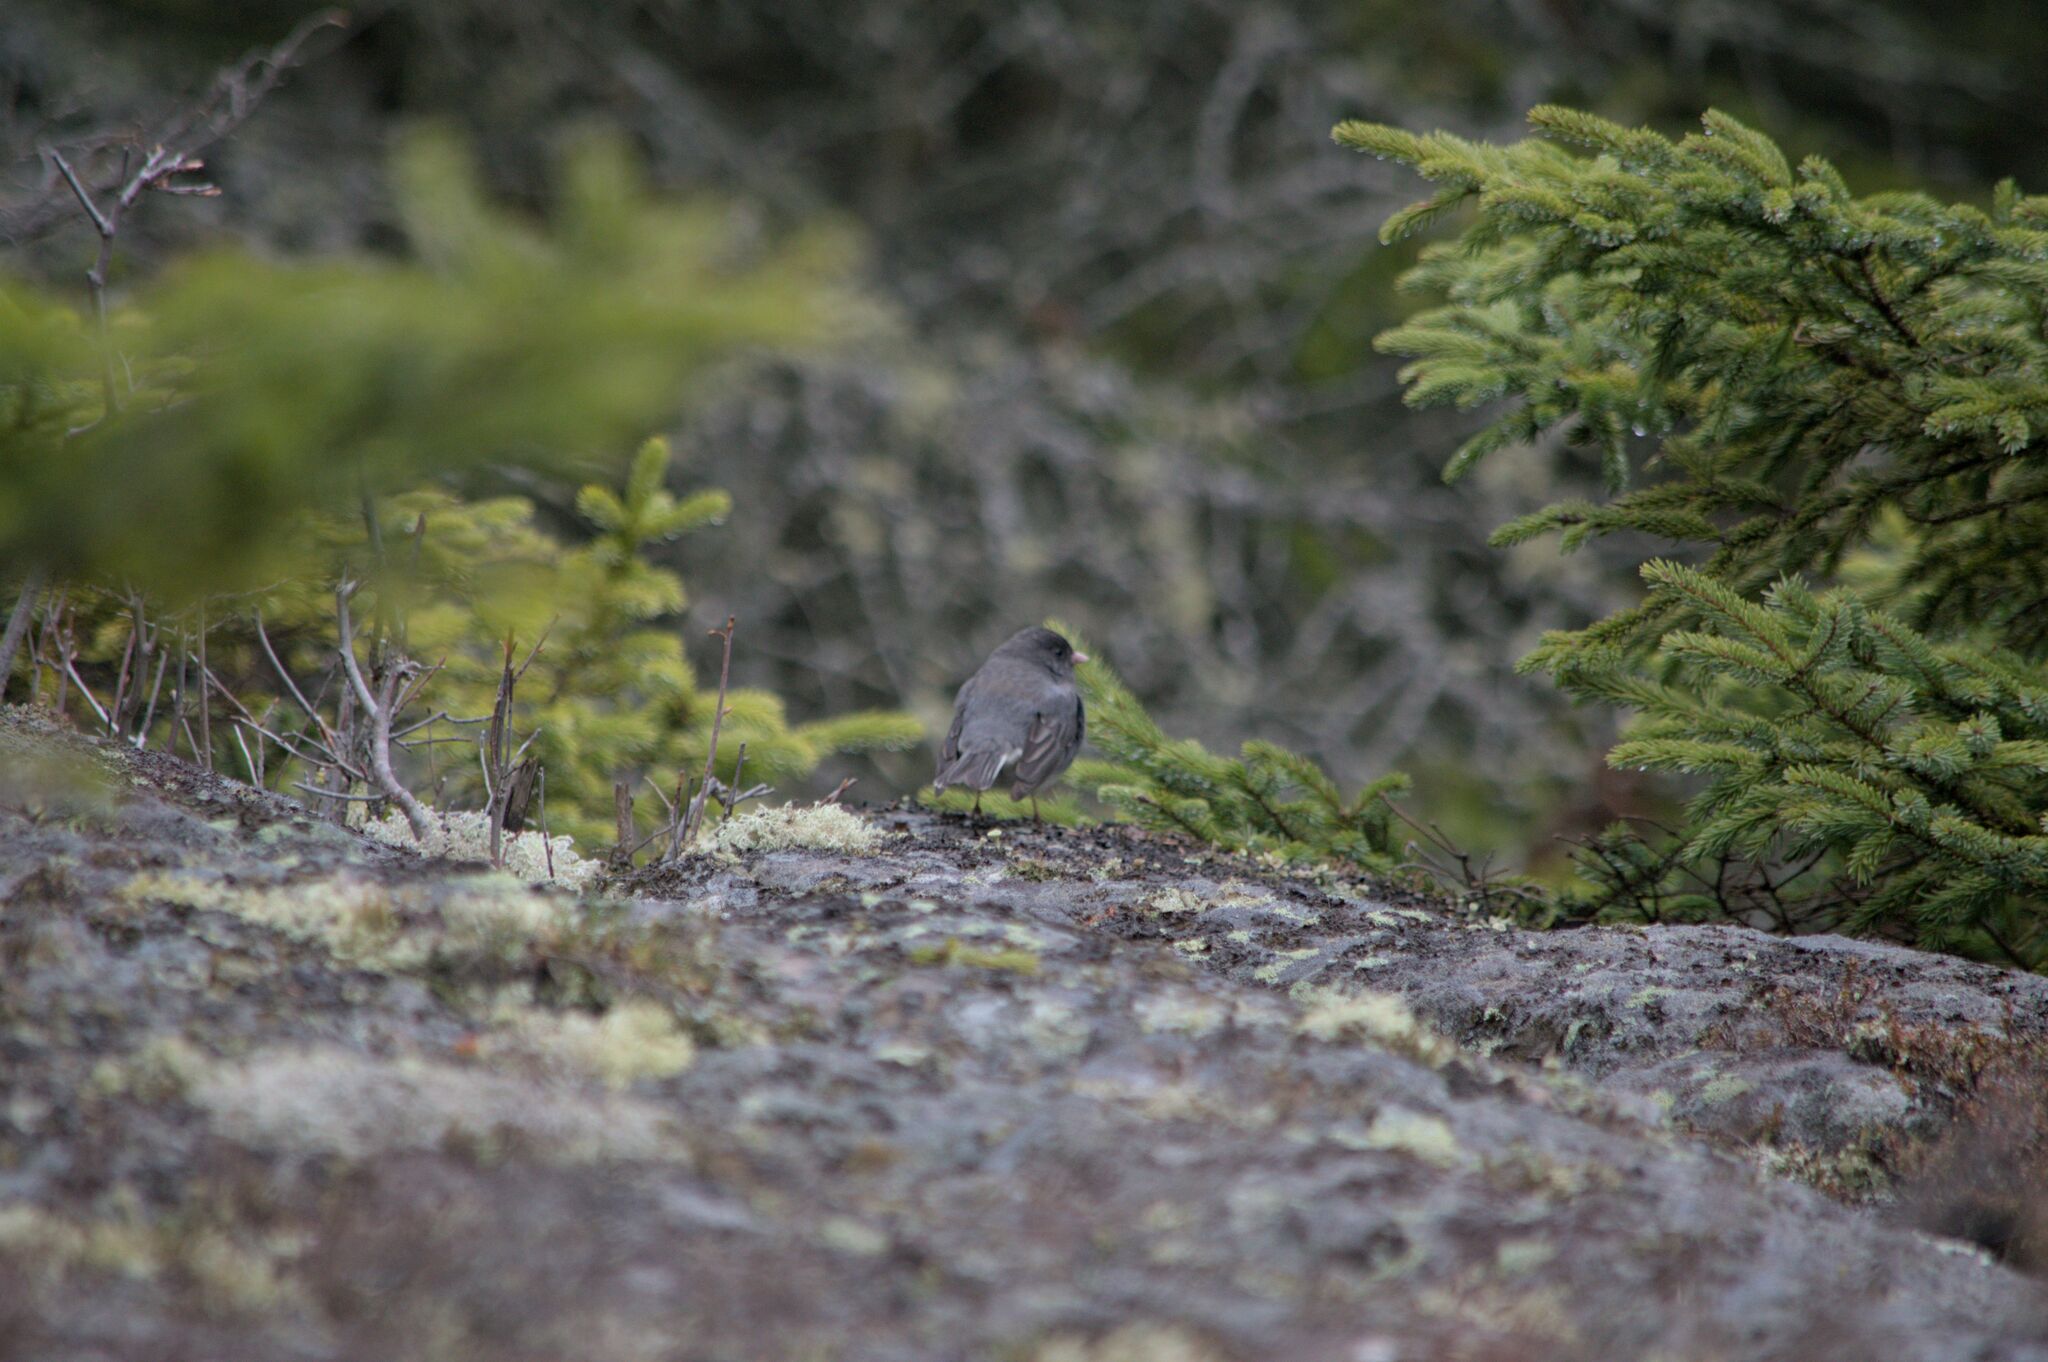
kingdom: Animalia
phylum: Chordata
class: Aves
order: Passeriformes
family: Passerellidae
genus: Junco
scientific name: Junco hyemalis
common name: Dark-eyed junco
